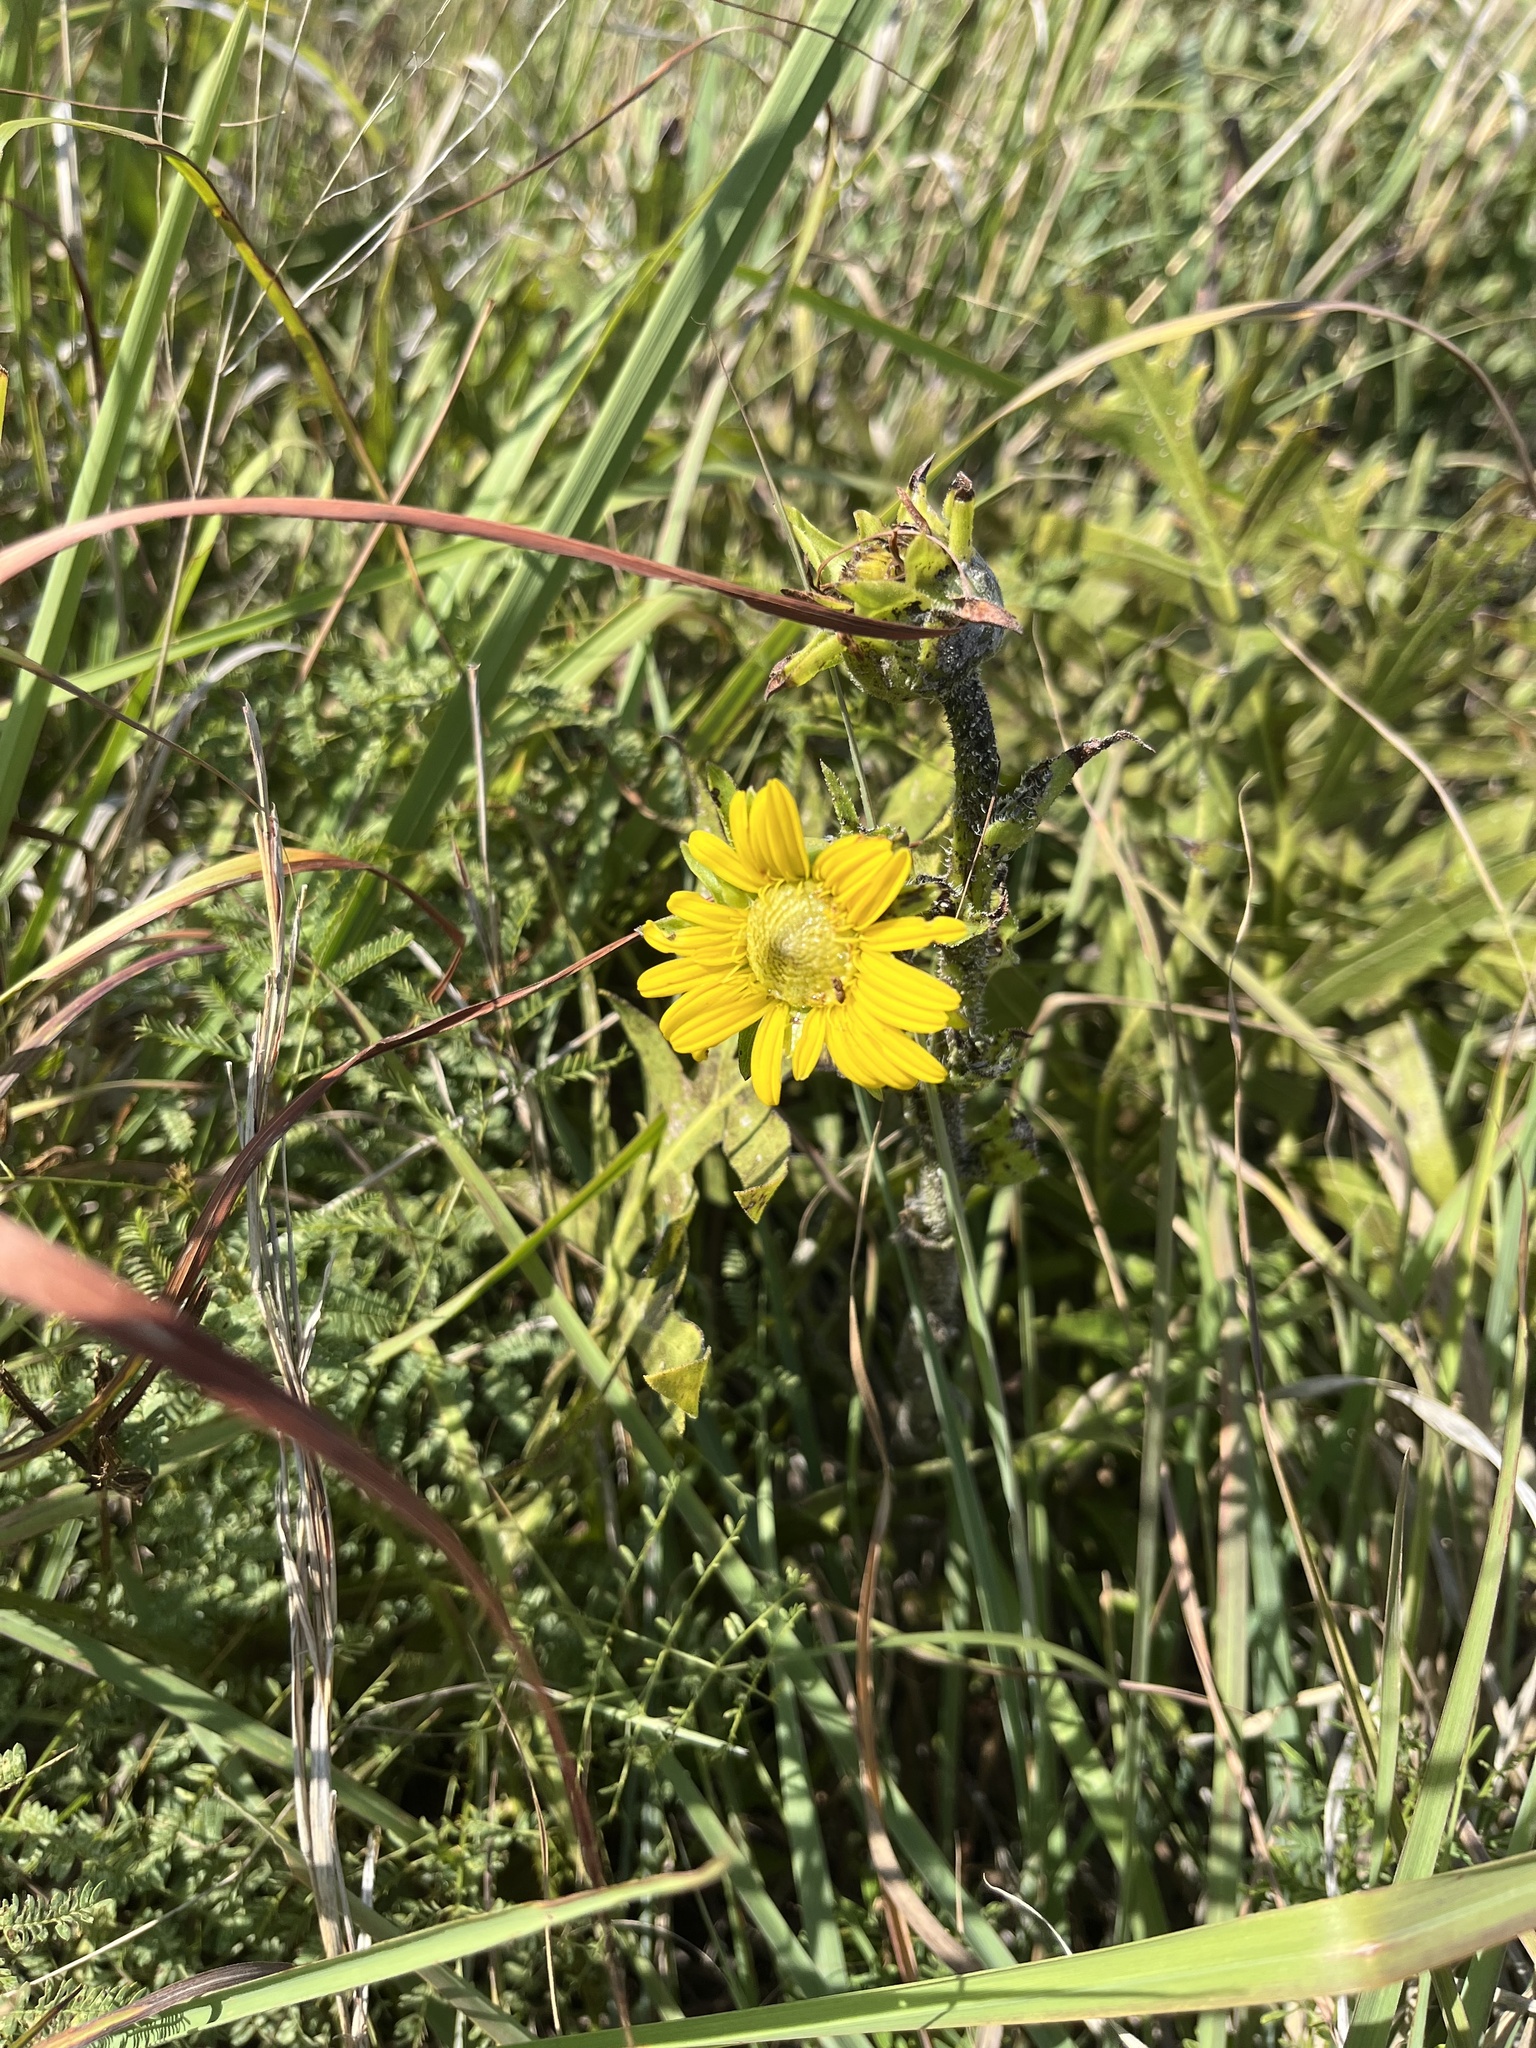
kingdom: Plantae
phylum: Tracheophyta
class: Magnoliopsida
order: Asterales
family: Asteraceae
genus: Silphium
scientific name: Silphium laciniatum
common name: Polarplant
